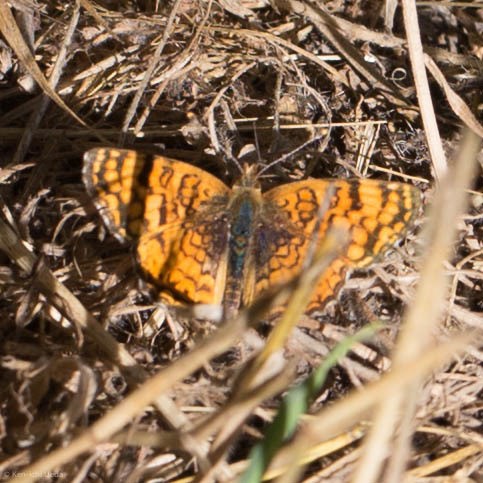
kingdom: Animalia
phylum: Arthropoda
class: Insecta
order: Lepidoptera
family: Nymphalidae
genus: Eresia
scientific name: Eresia aveyrona
